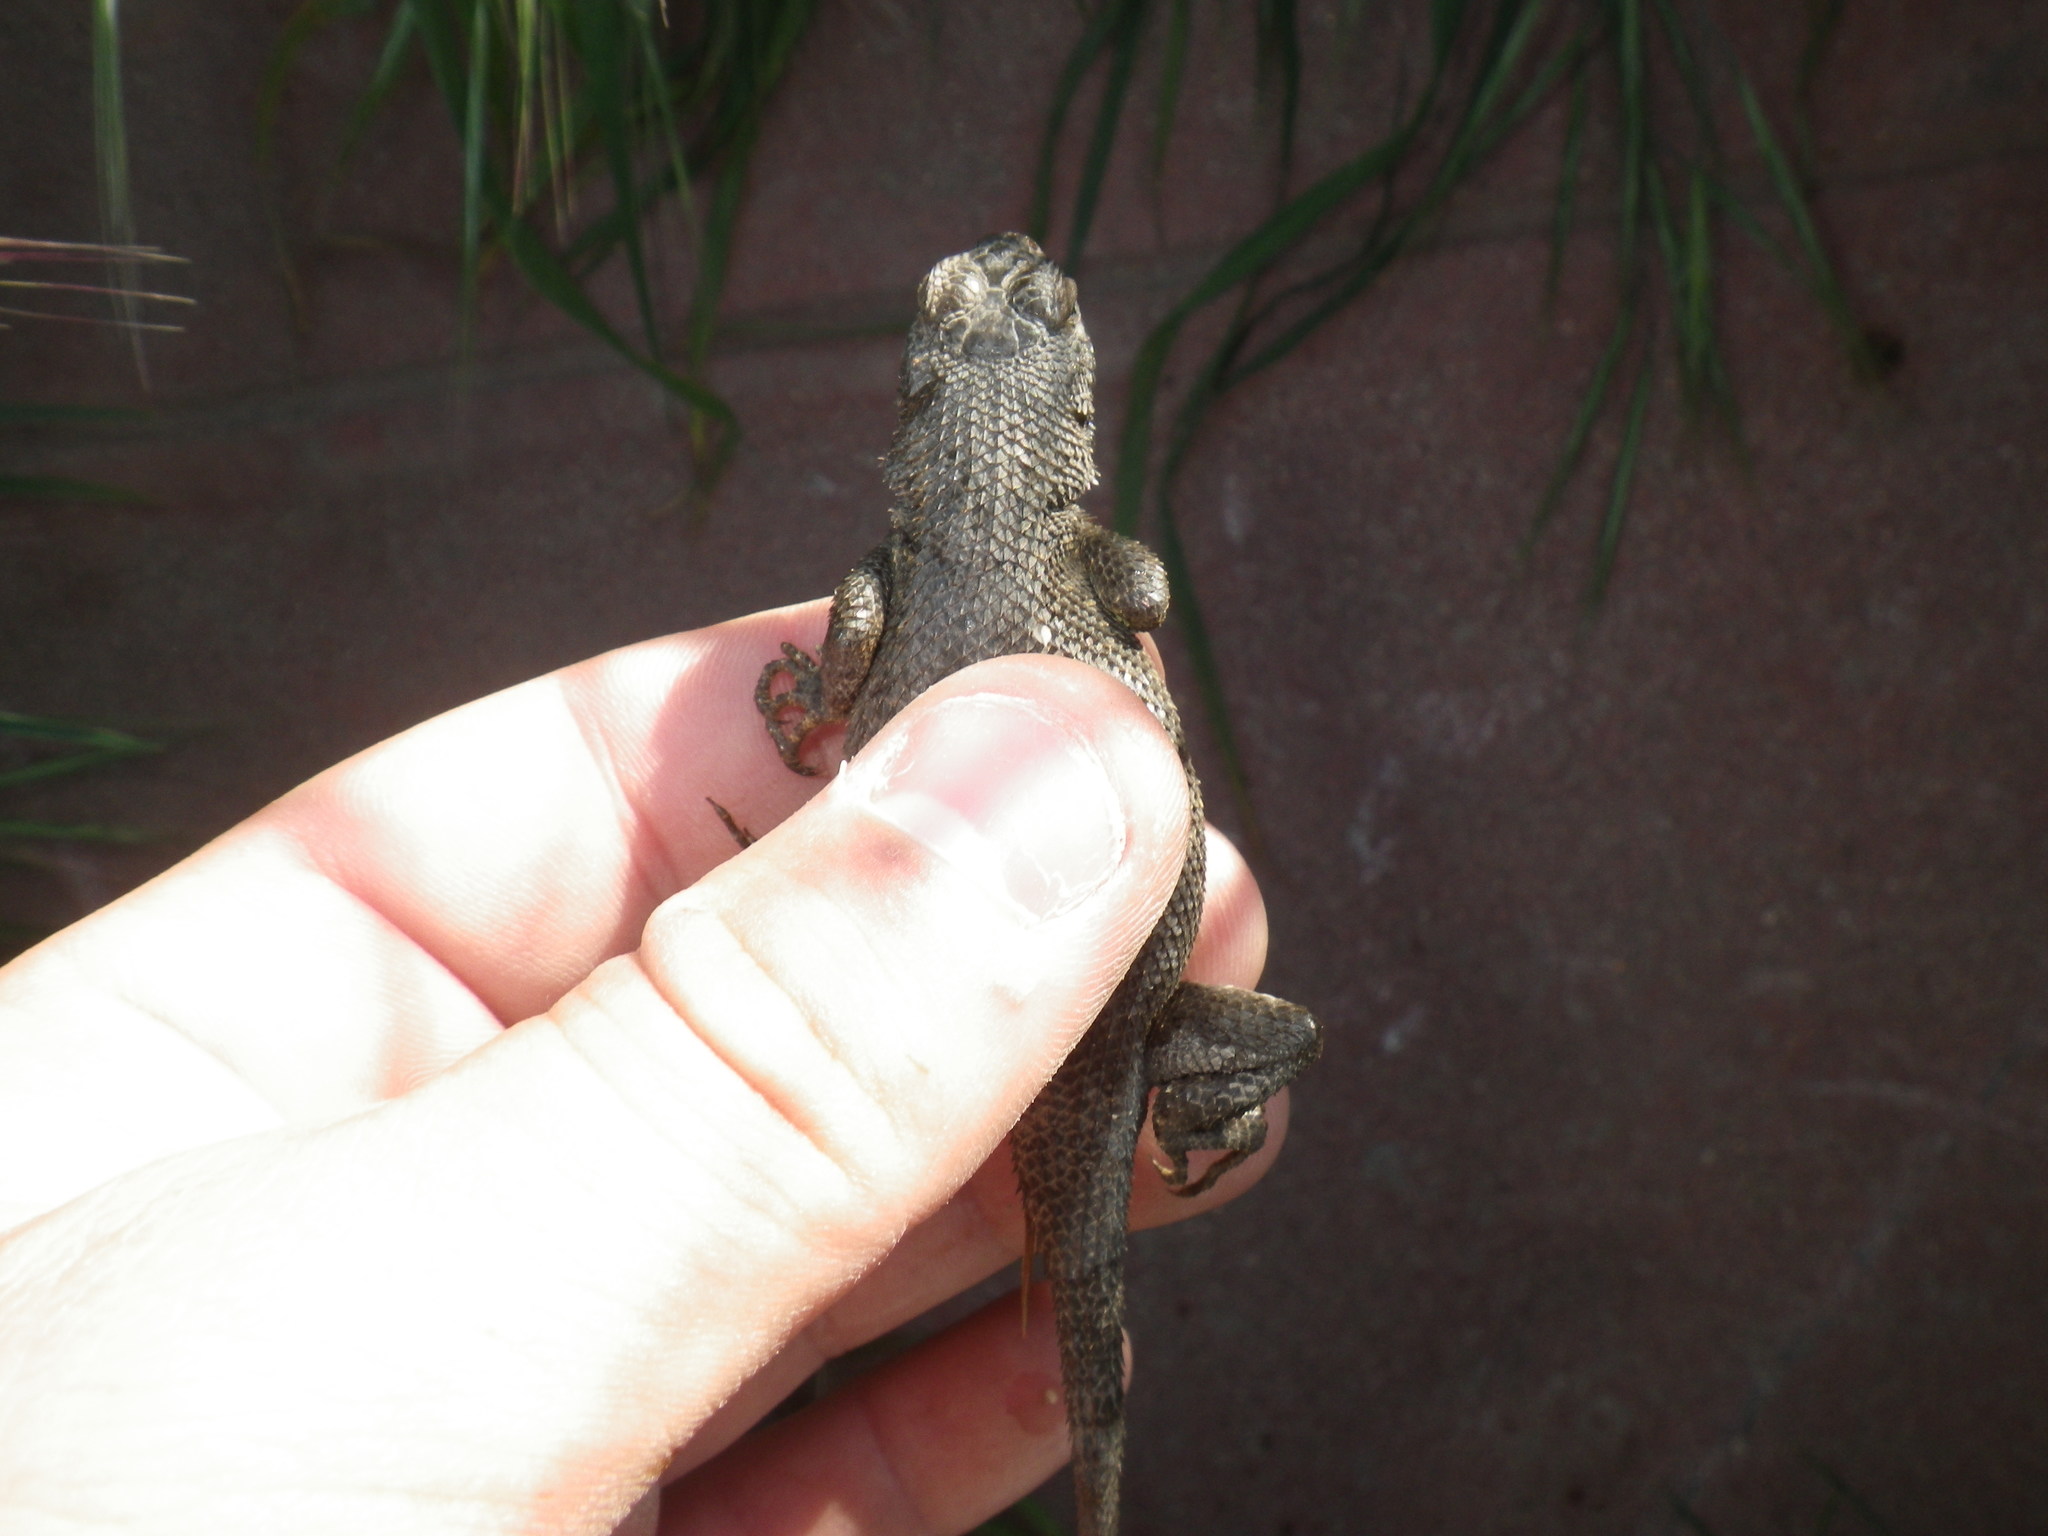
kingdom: Animalia
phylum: Chordata
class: Squamata
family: Phrynosomatidae
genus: Sceloporus
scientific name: Sceloporus occidentalis
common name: Western fence lizard
